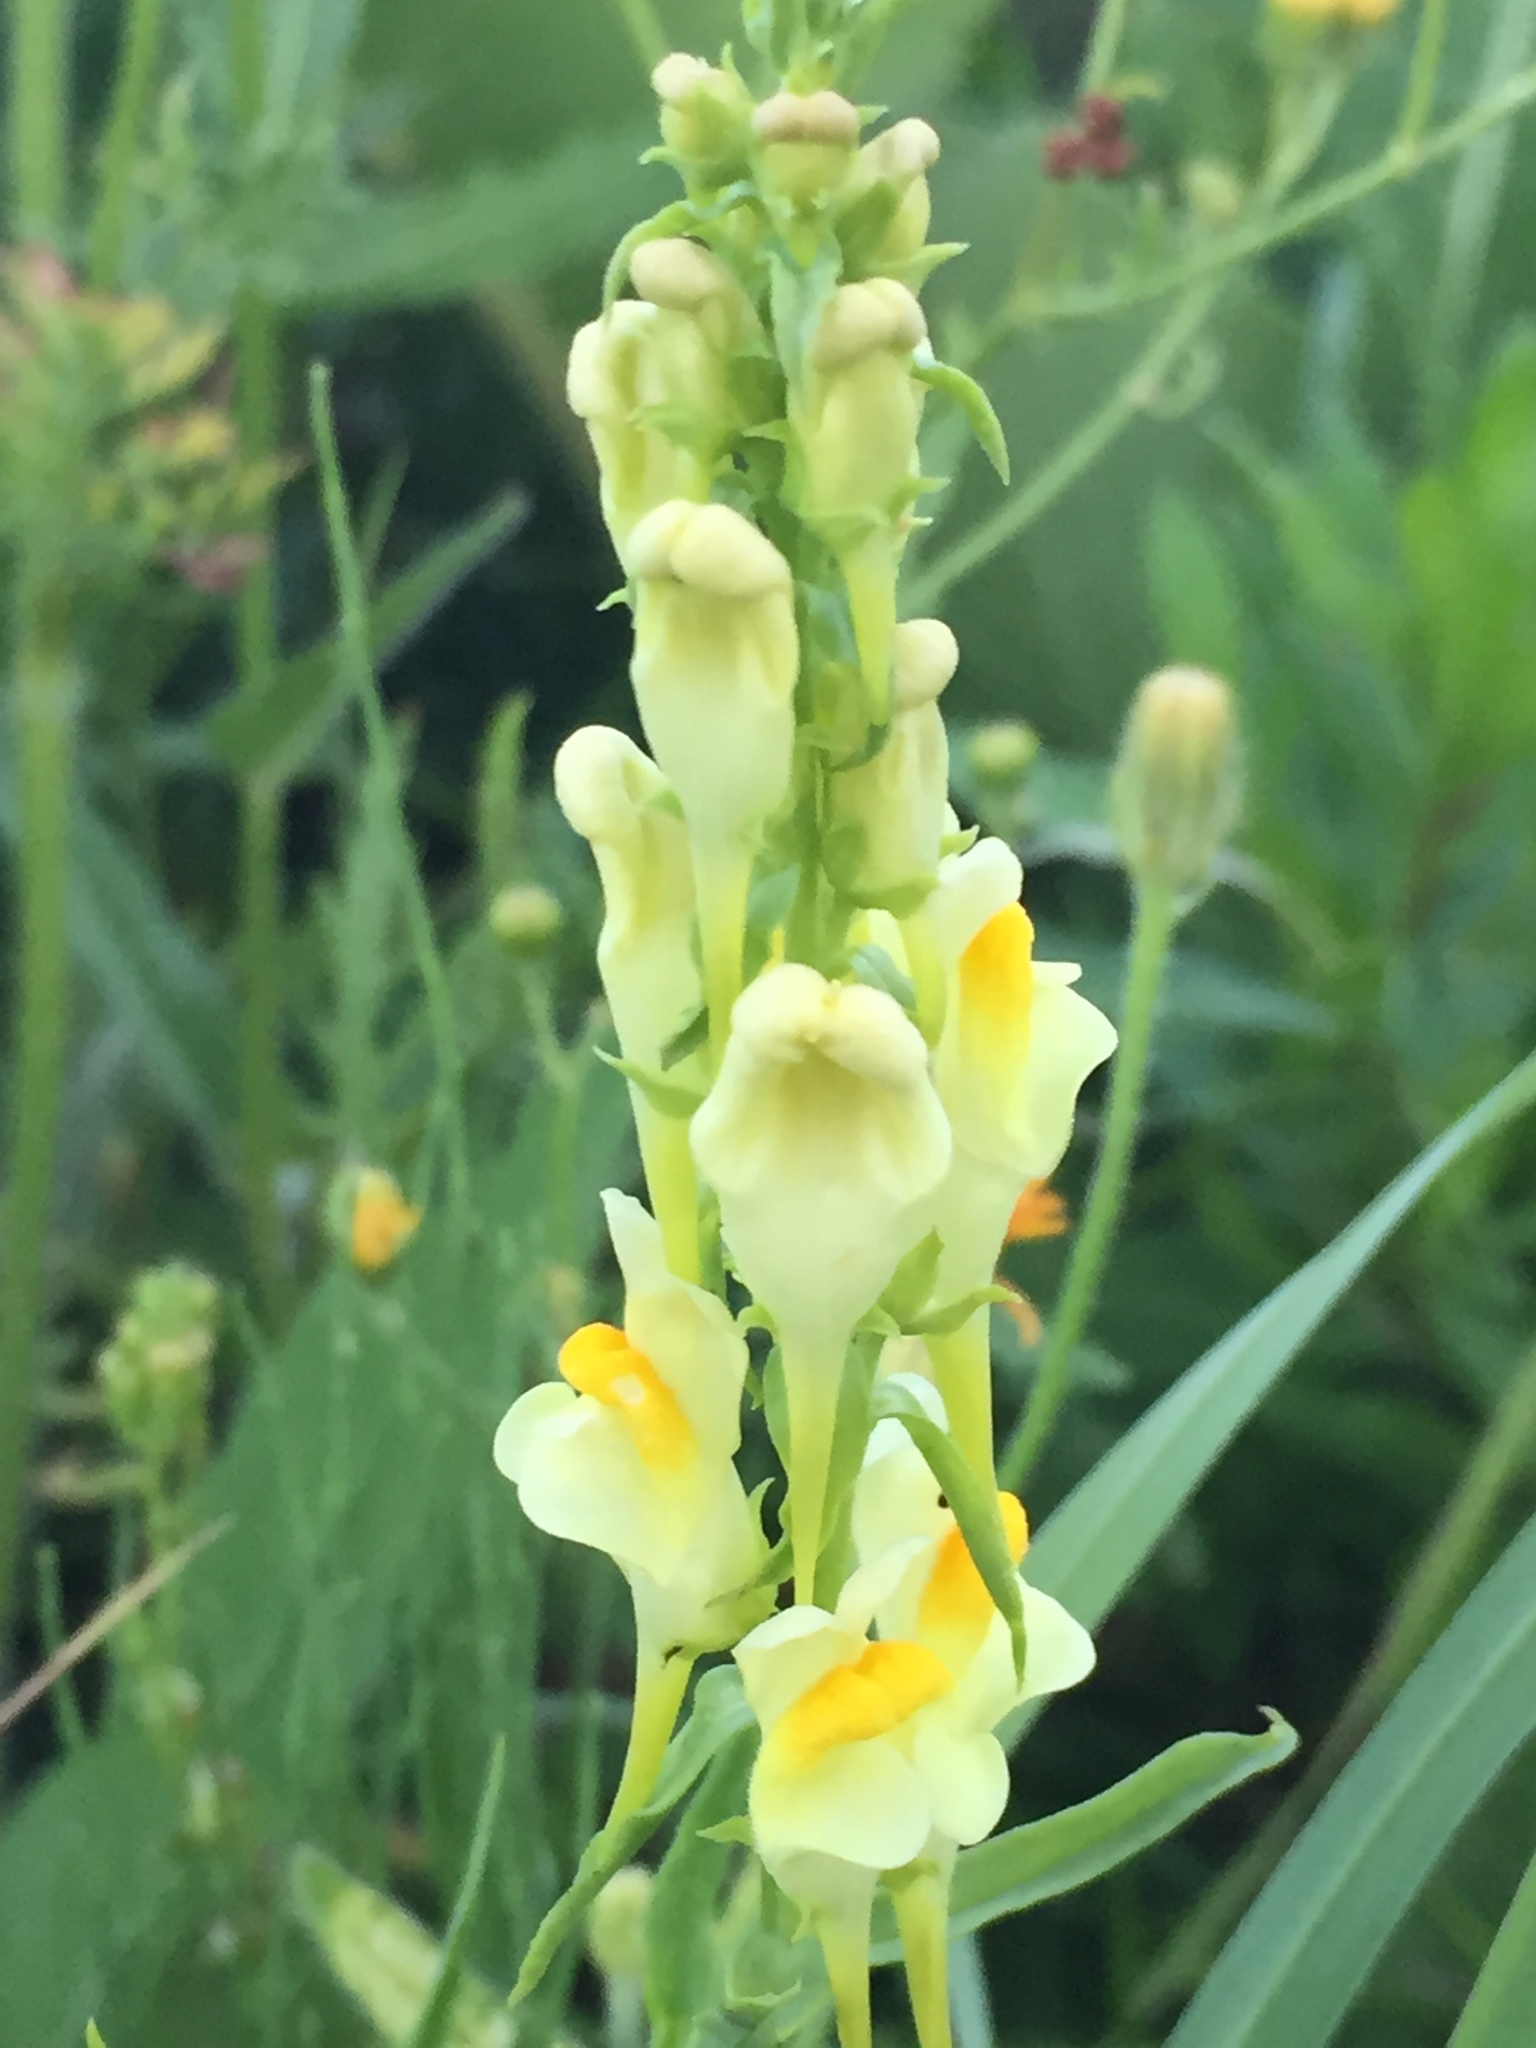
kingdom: Plantae
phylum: Tracheophyta
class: Magnoliopsida
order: Lamiales
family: Plantaginaceae
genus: Linaria
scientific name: Linaria vulgaris
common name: Butter and eggs
